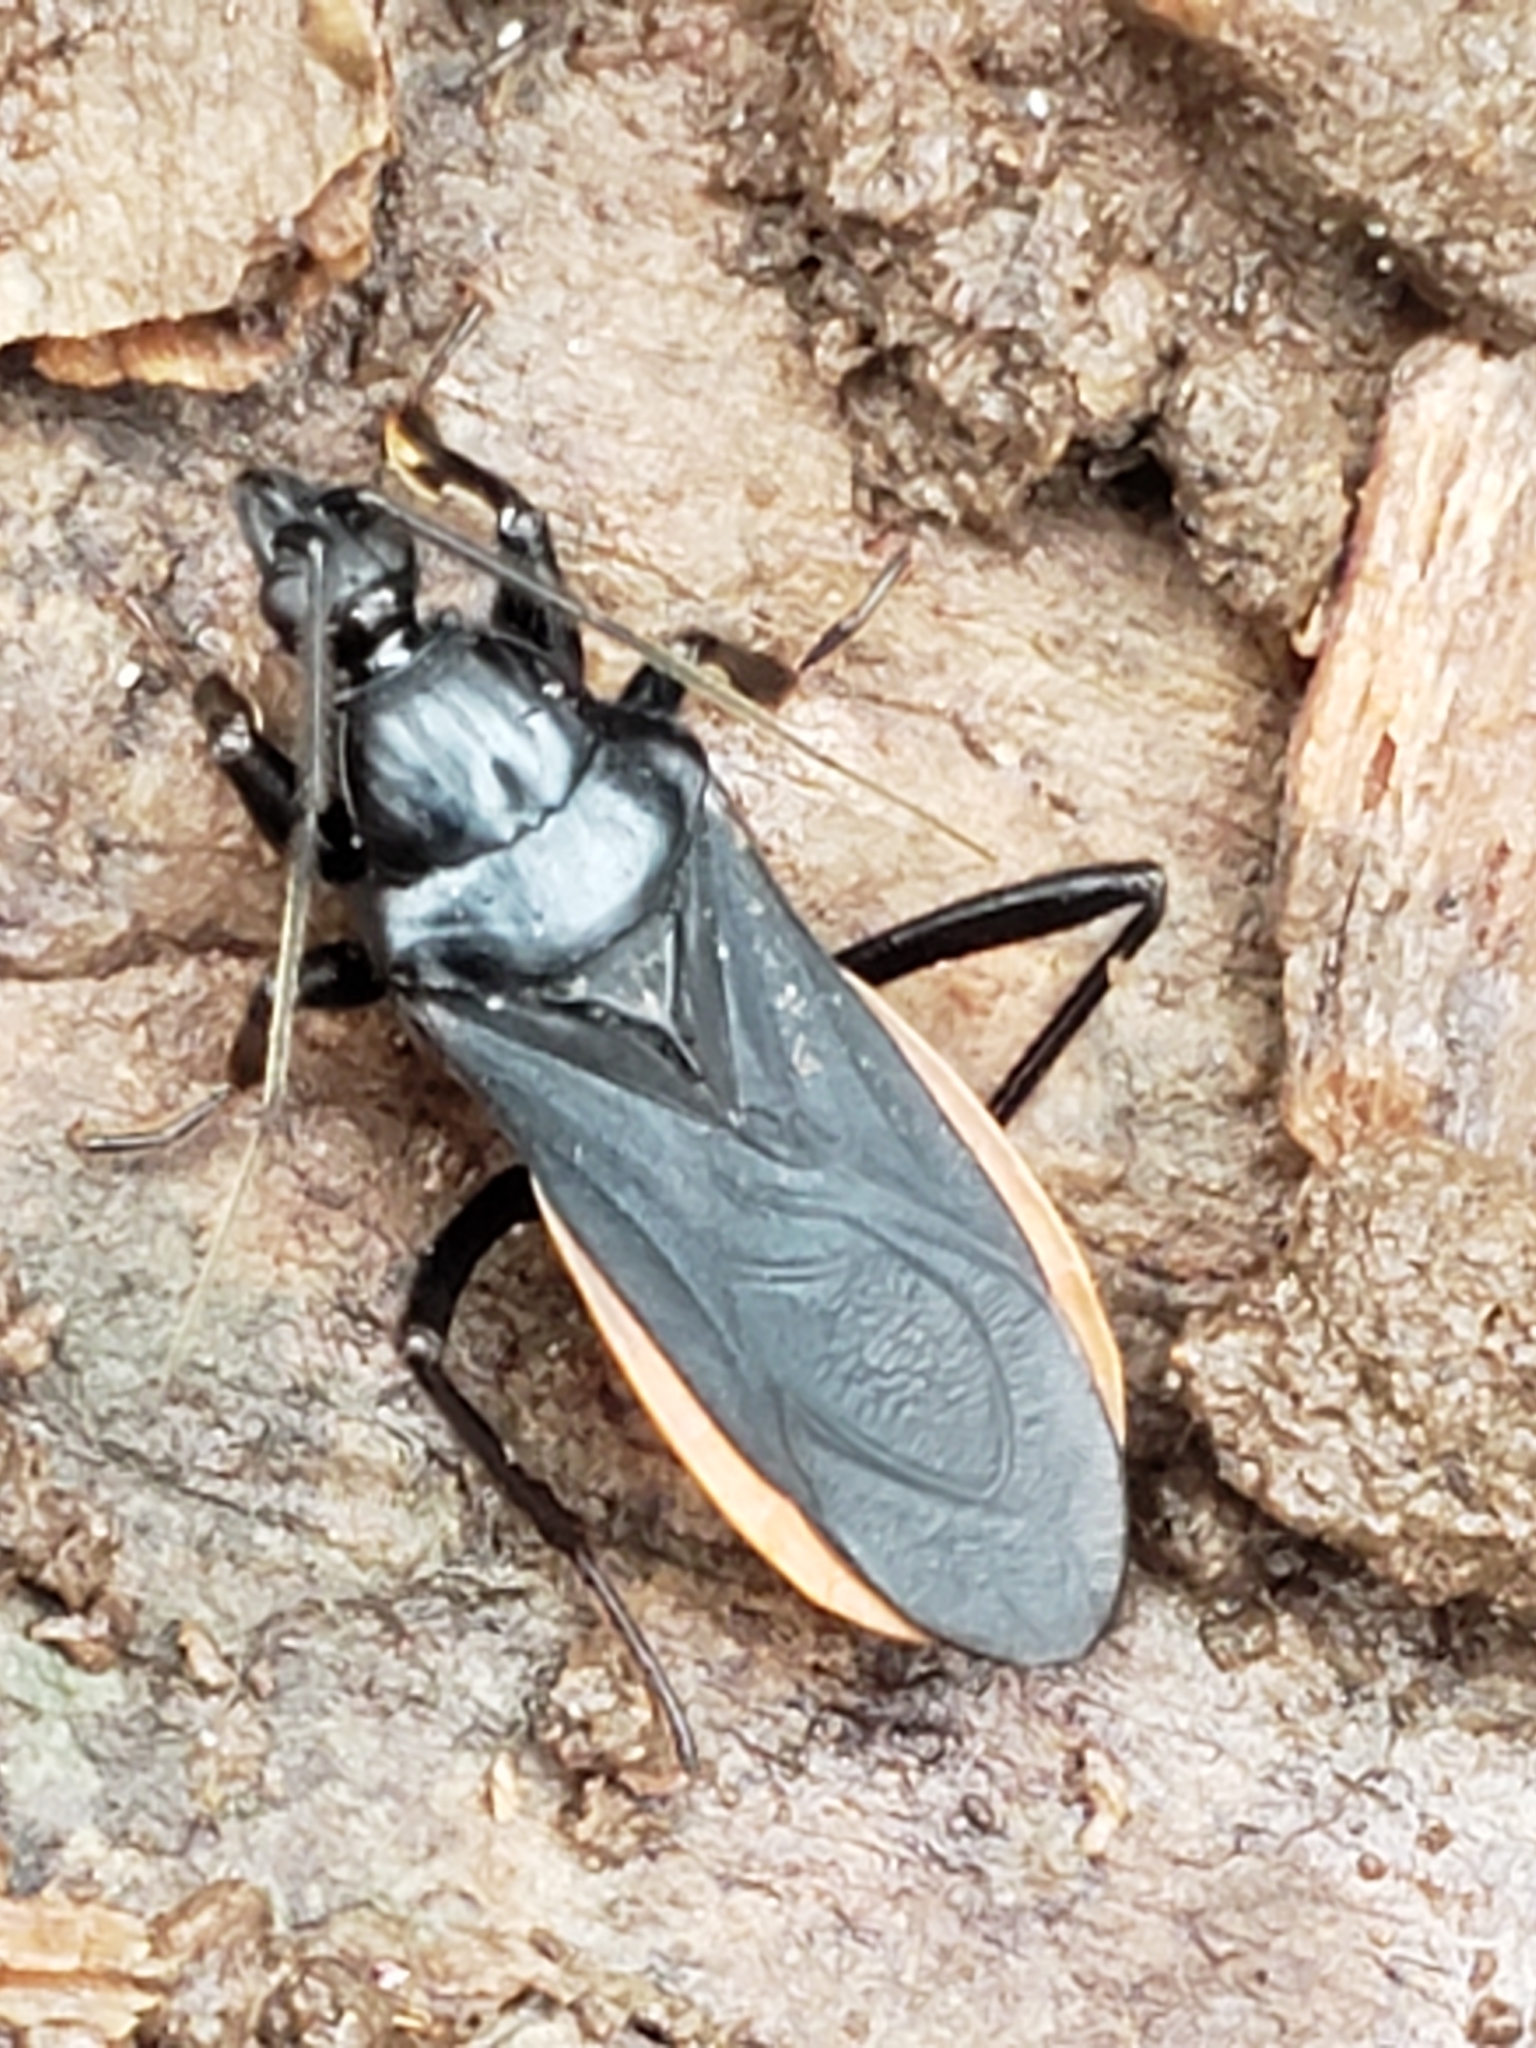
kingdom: Animalia
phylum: Arthropoda
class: Insecta
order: Hemiptera
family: Reduviidae
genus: Melanolestes
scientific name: Melanolestes picipes
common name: Assassin bug
